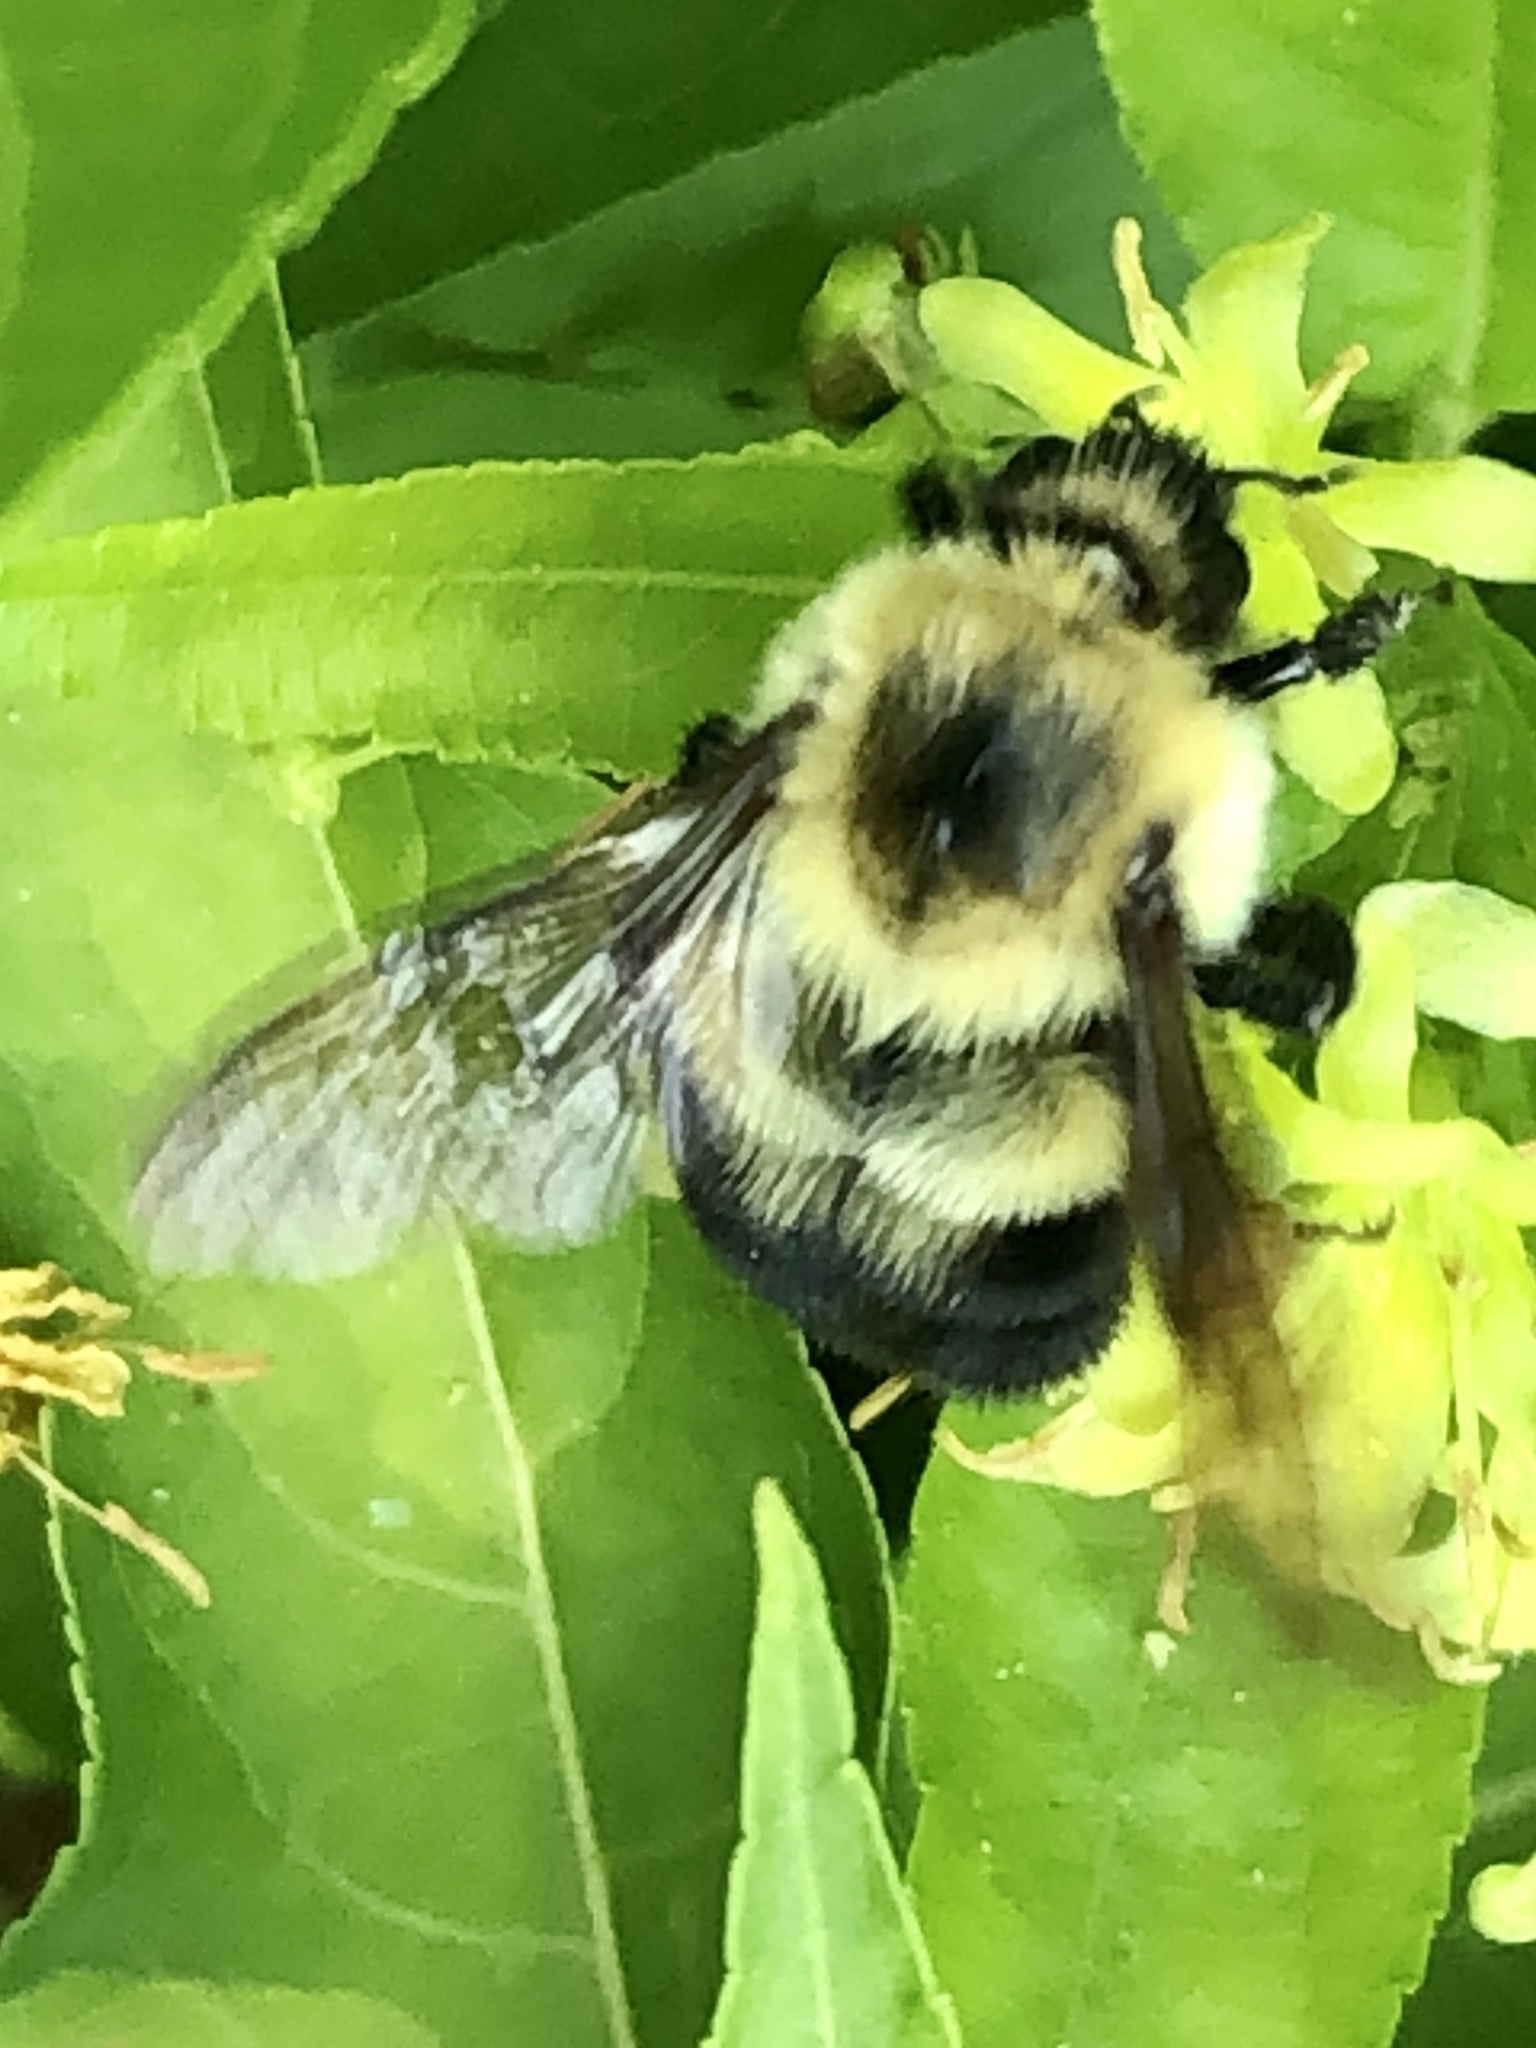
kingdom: Animalia
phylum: Arthropoda
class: Insecta
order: Hymenoptera
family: Apidae
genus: Bombus
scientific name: Bombus bimaculatus
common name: Two-spotted bumble bee
